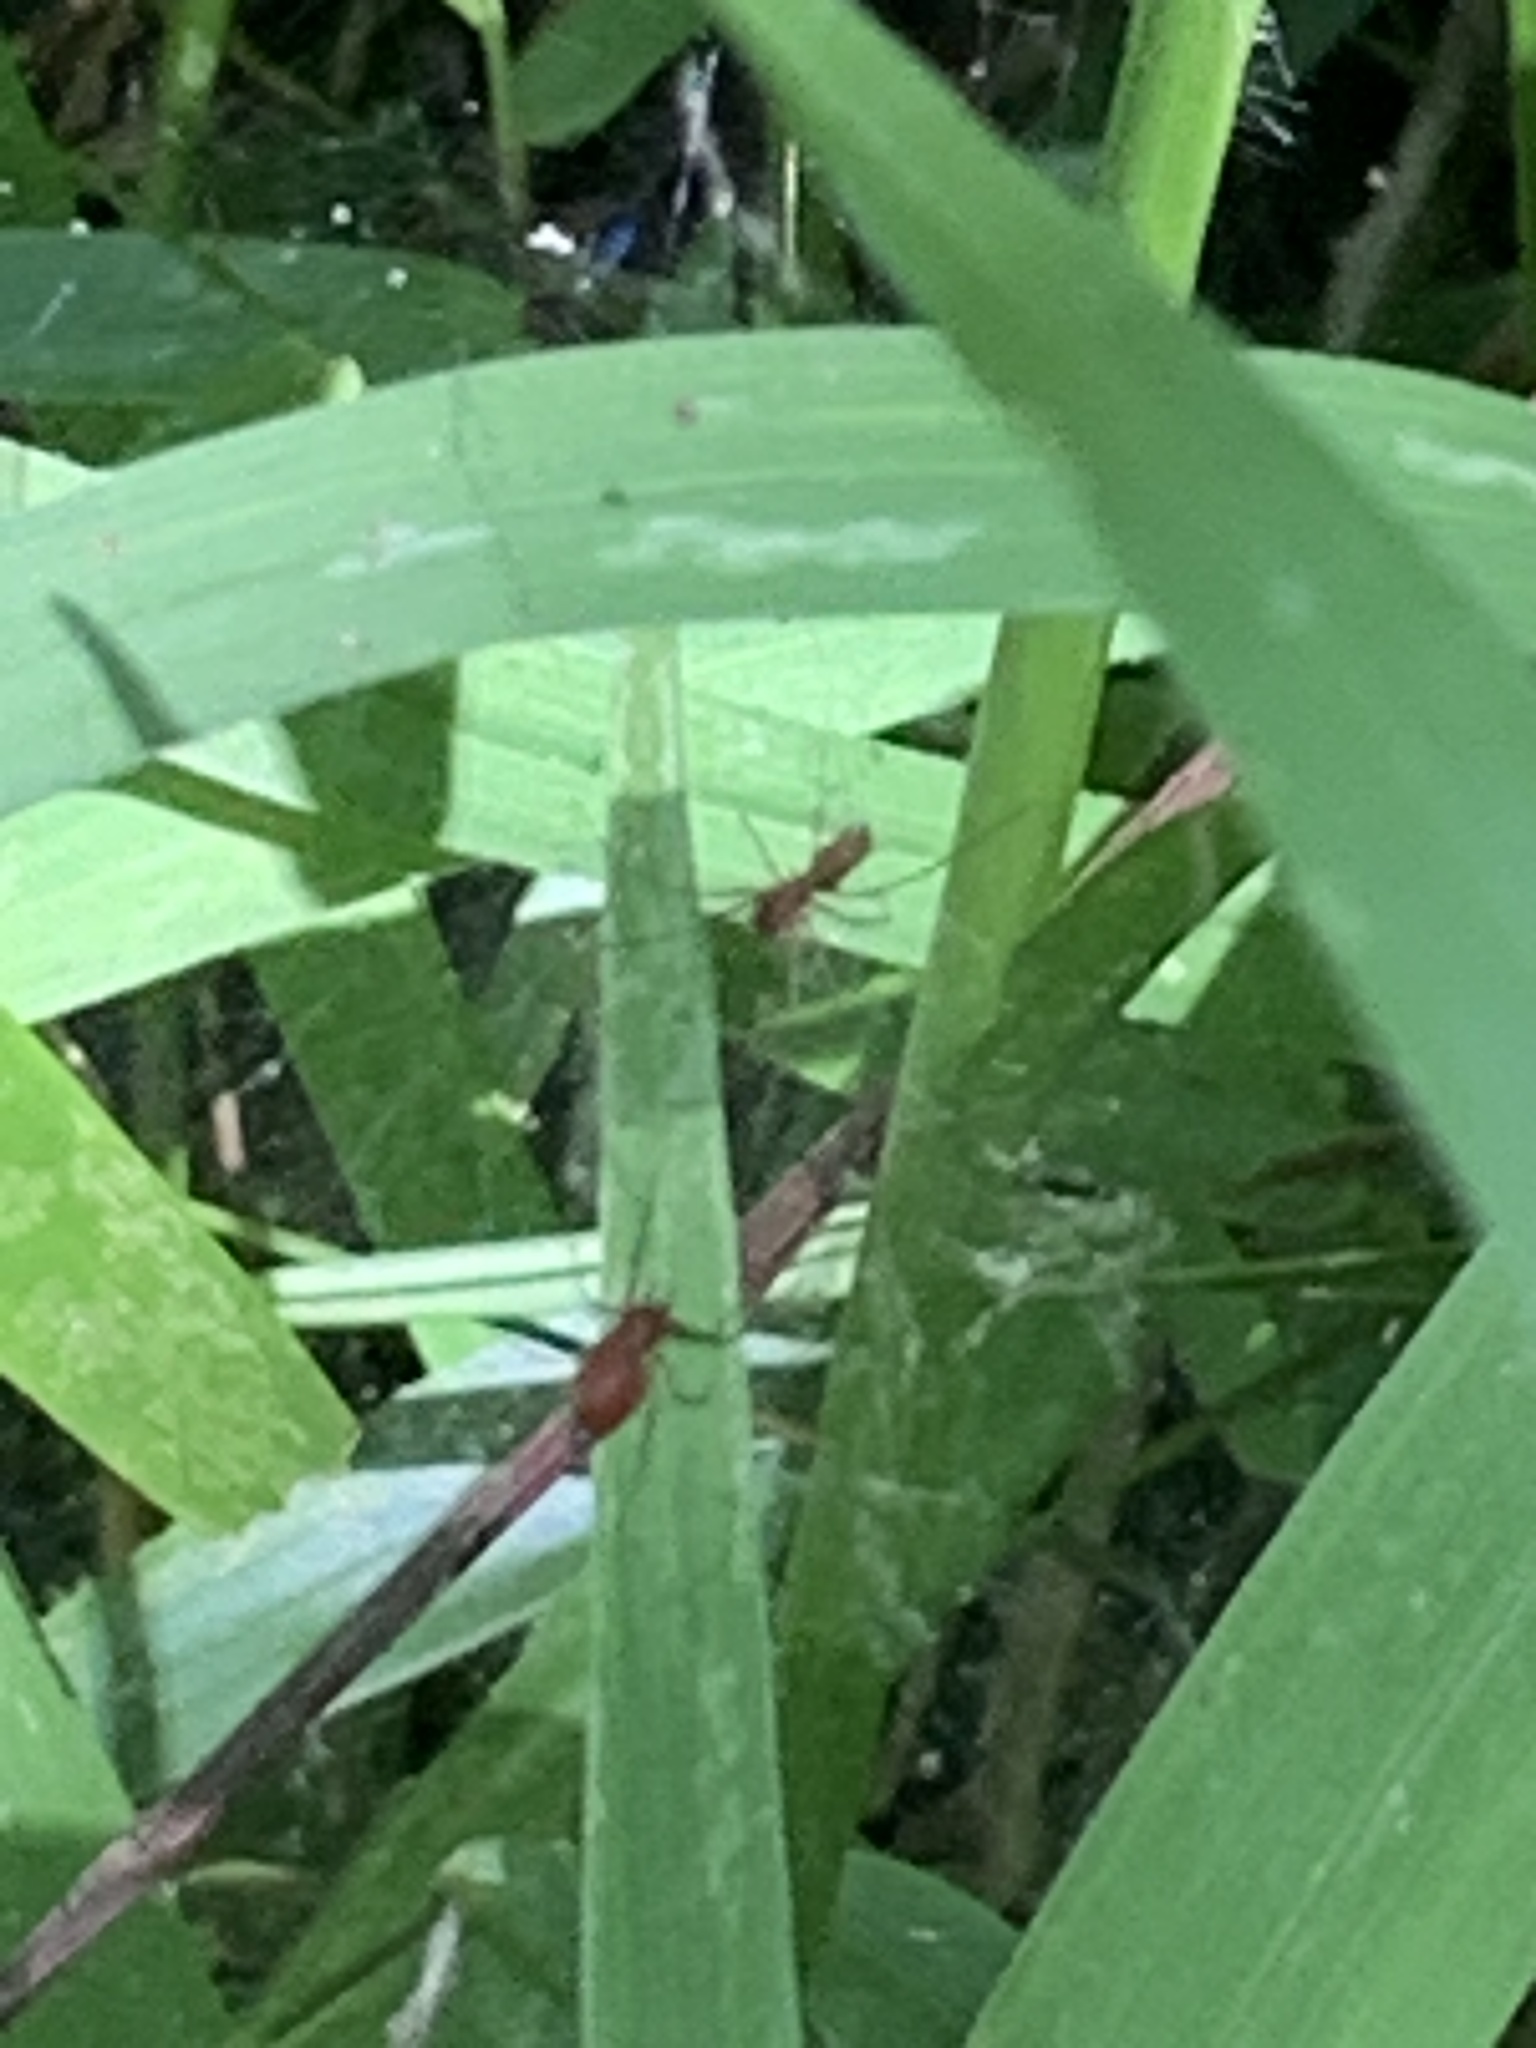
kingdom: Animalia
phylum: Arthropoda
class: Arachnida
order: Araneae
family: Linyphiidae
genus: Florinda
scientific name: Florinda coccinea
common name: Black-tailed red sheetweaver
